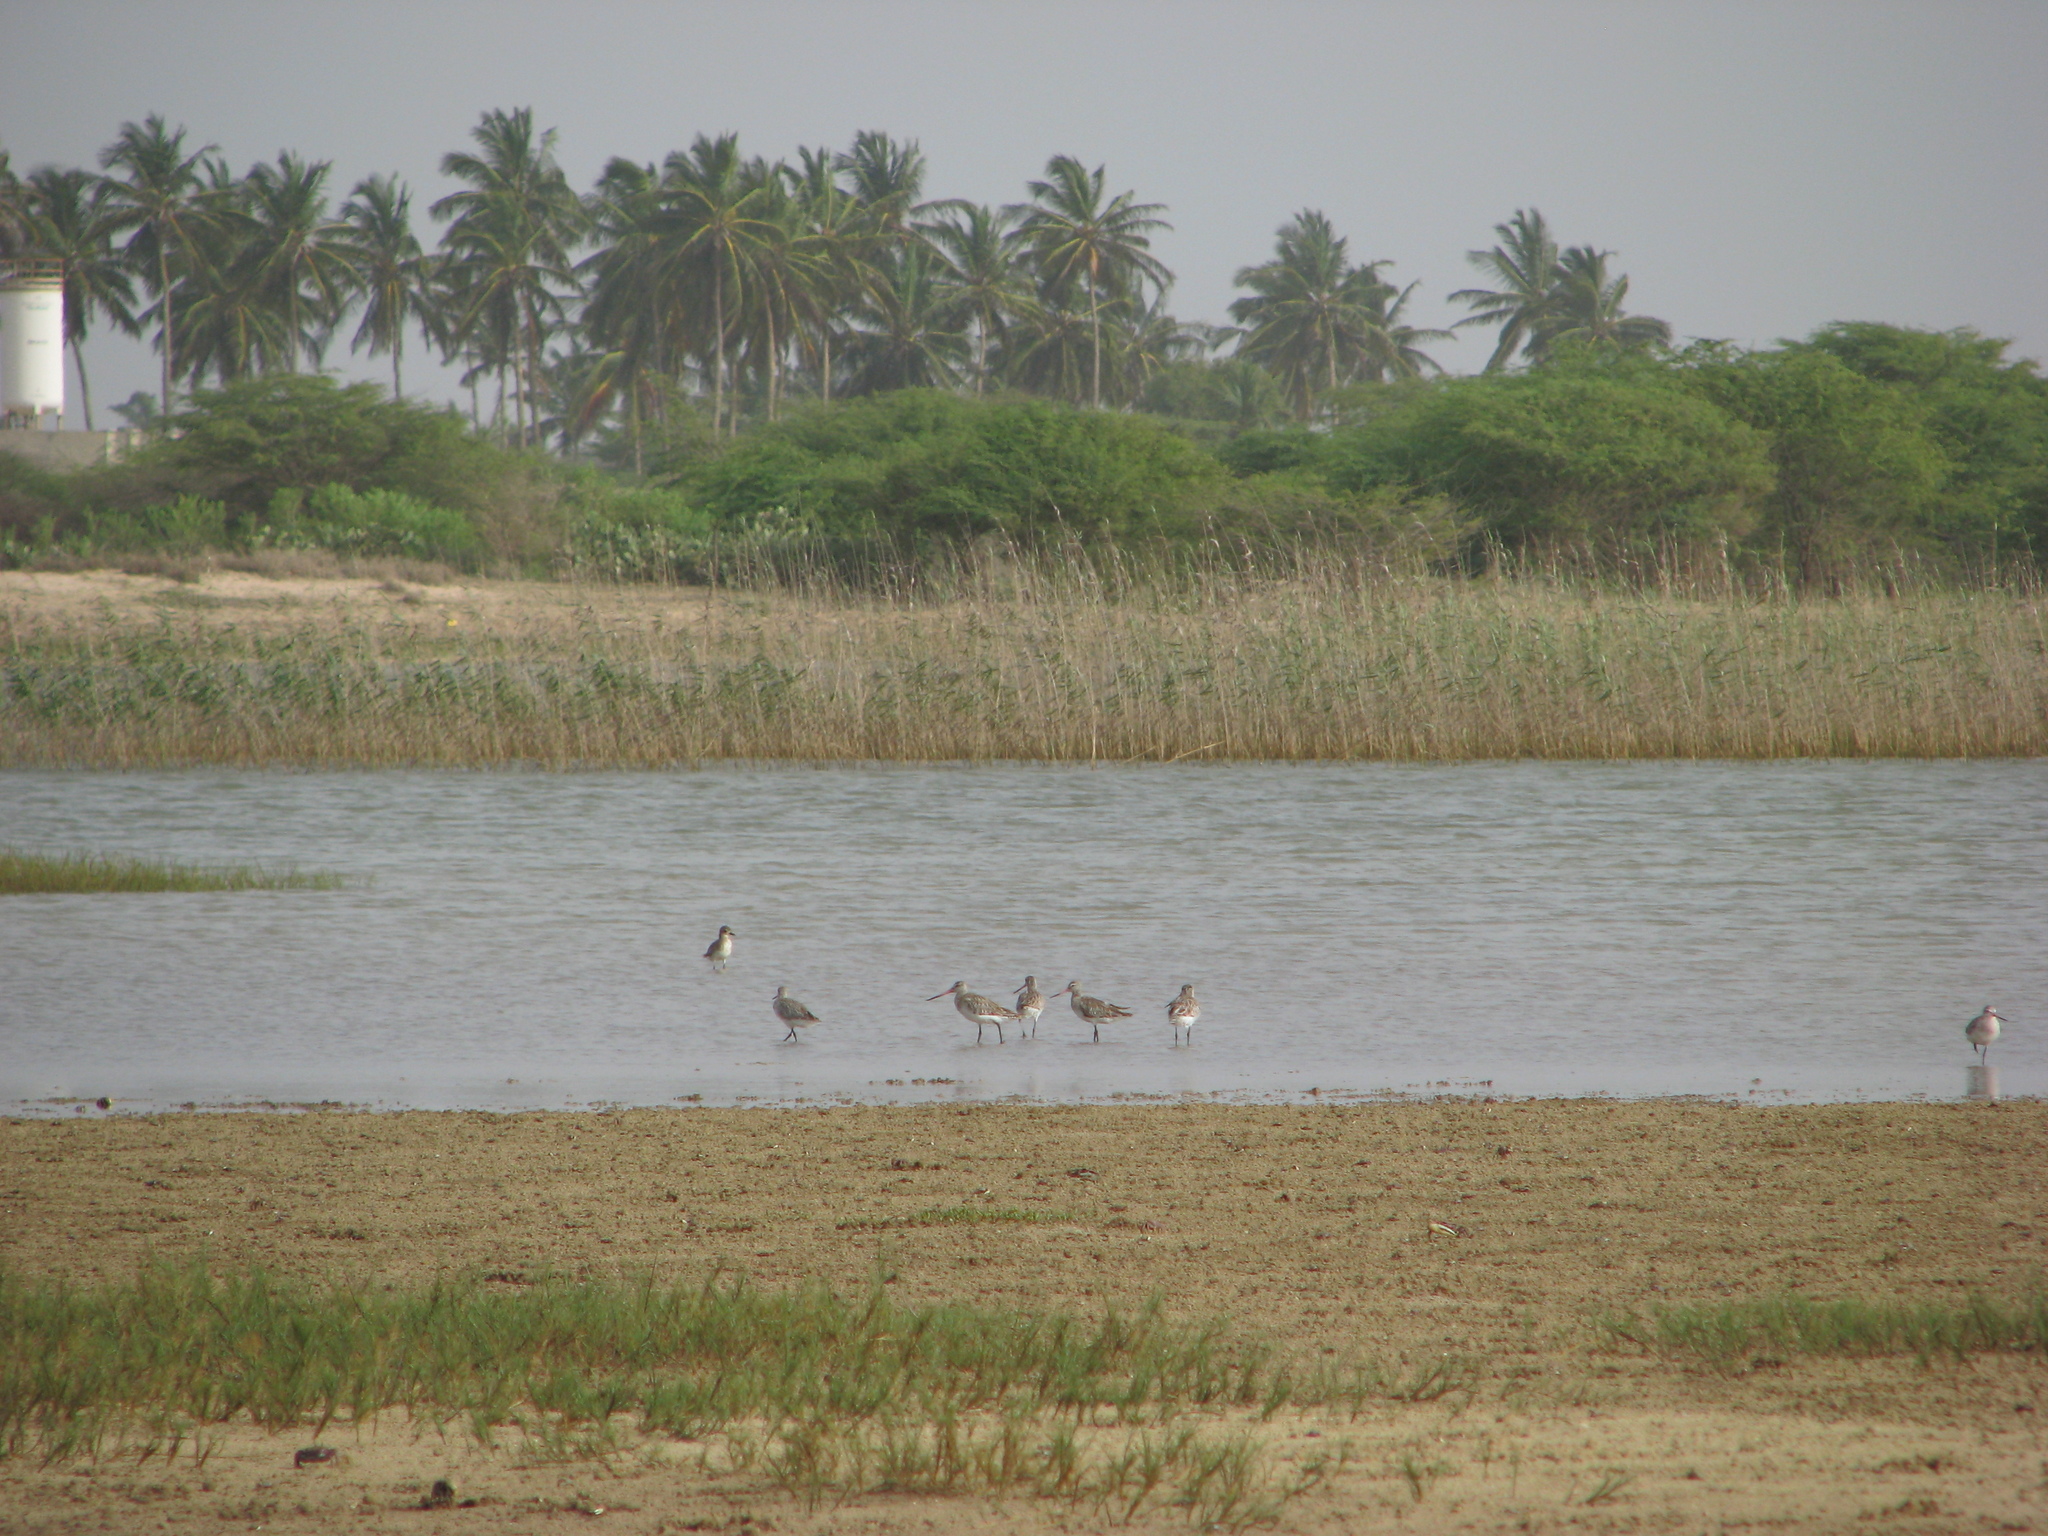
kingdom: Animalia
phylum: Chordata
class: Aves
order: Charadriiformes
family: Scolopacidae
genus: Limosa
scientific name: Limosa lapponica
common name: Bar-tailed godwit
